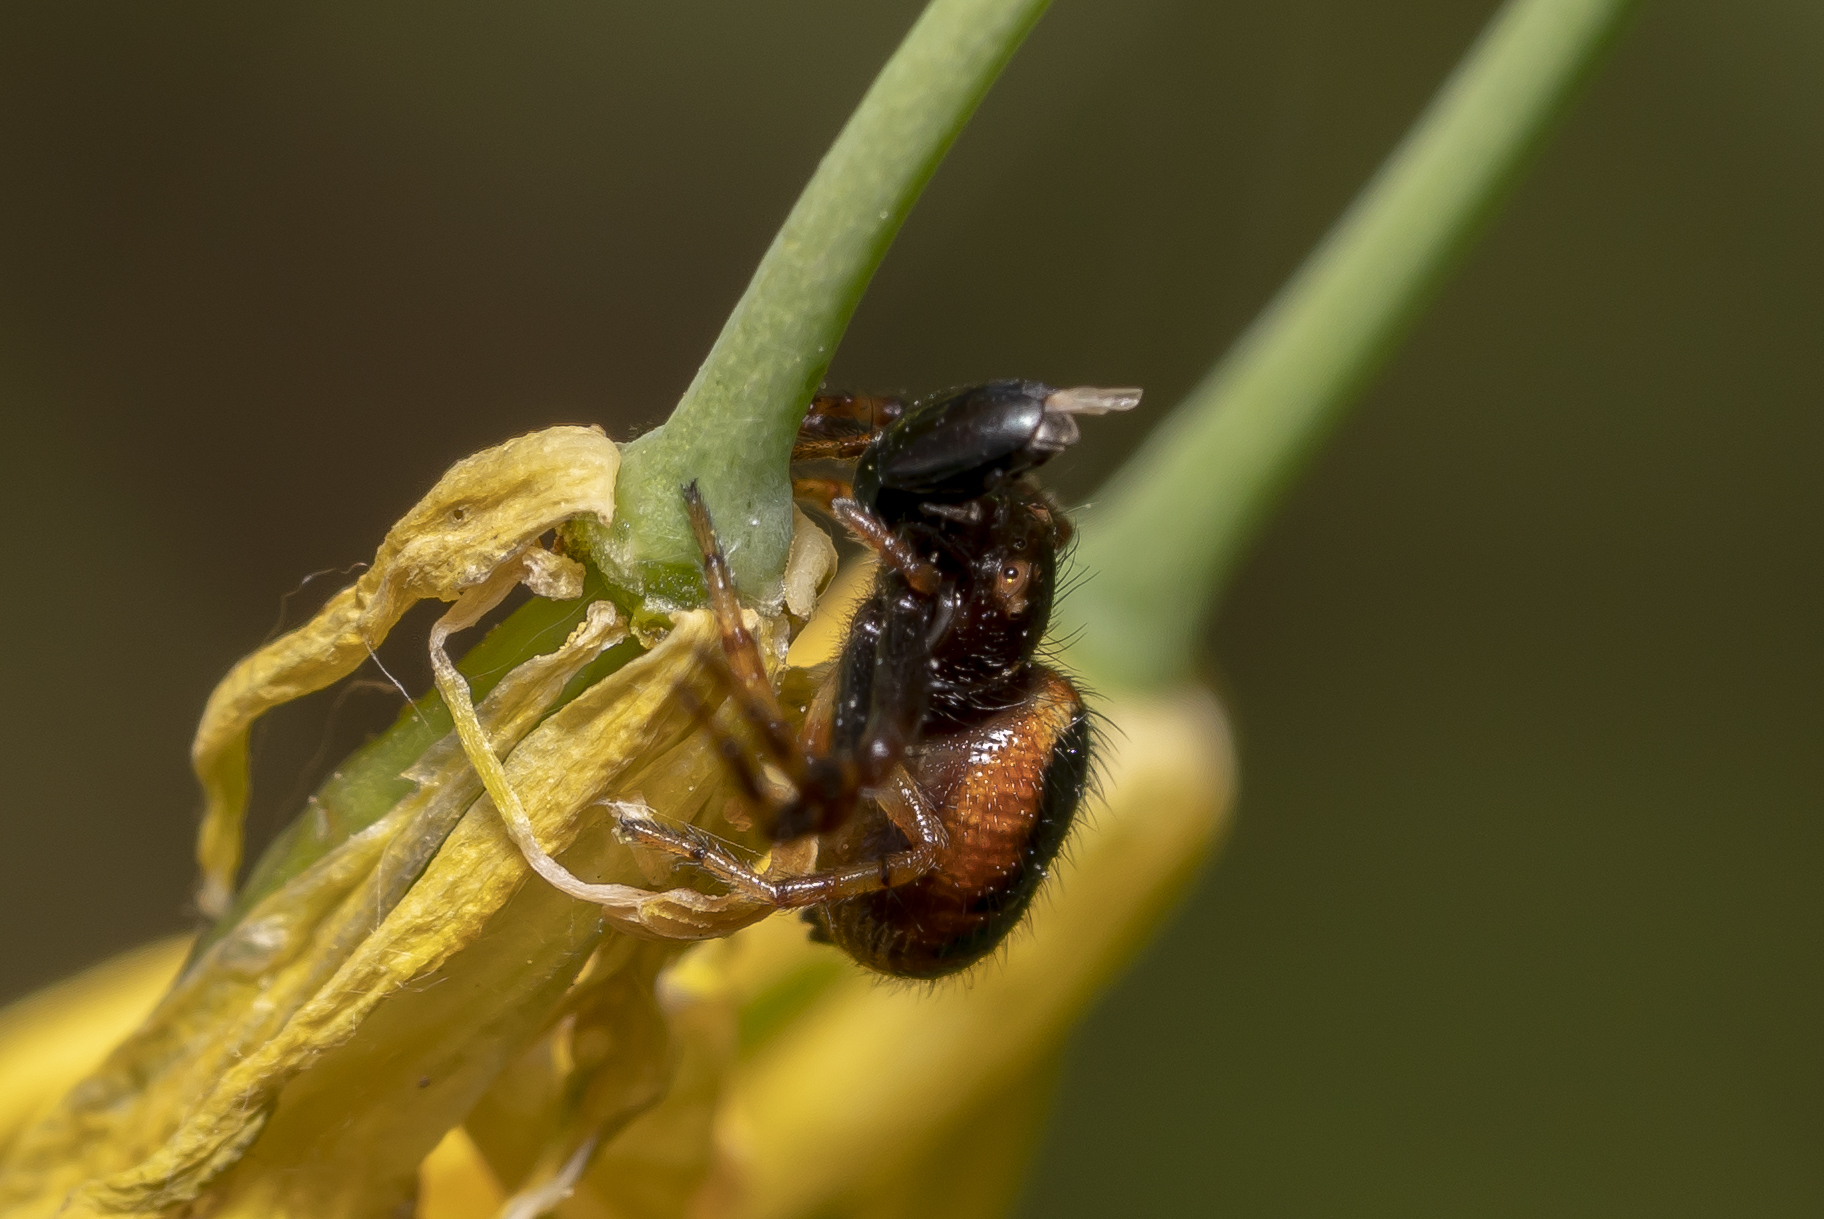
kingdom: Animalia
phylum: Arthropoda
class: Arachnida
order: Araneae
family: Thomisidae
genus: Synema
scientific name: Synema globosum
